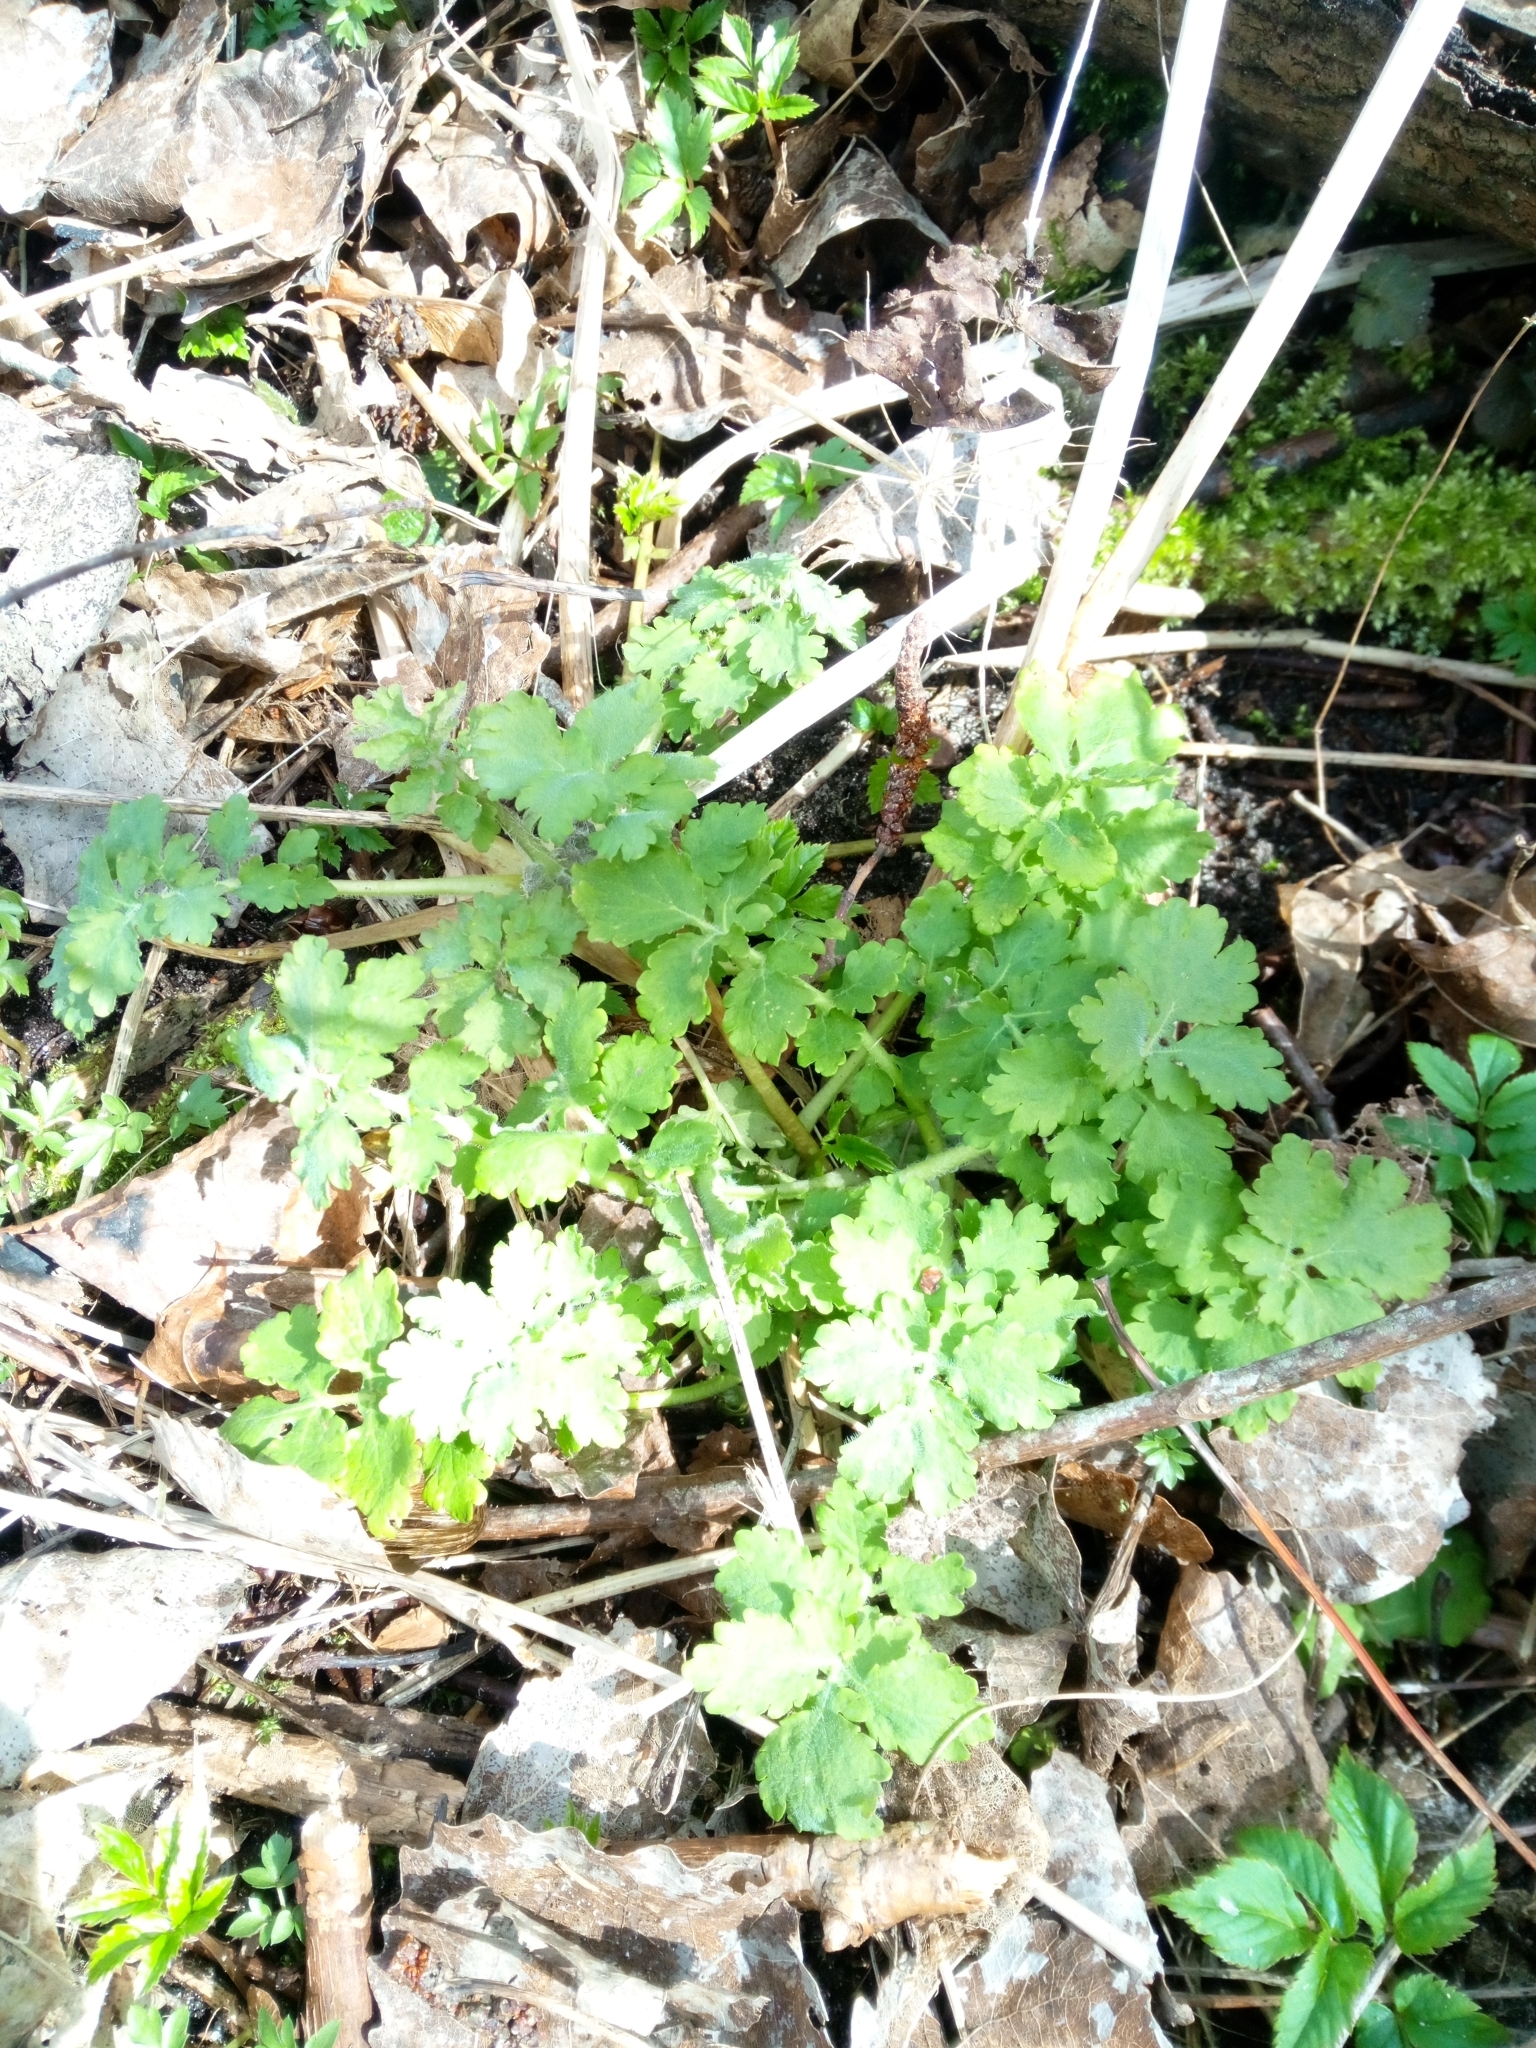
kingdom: Plantae
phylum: Tracheophyta
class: Magnoliopsida
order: Ranunculales
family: Papaveraceae
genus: Chelidonium
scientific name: Chelidonium majus
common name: Greater celandine
